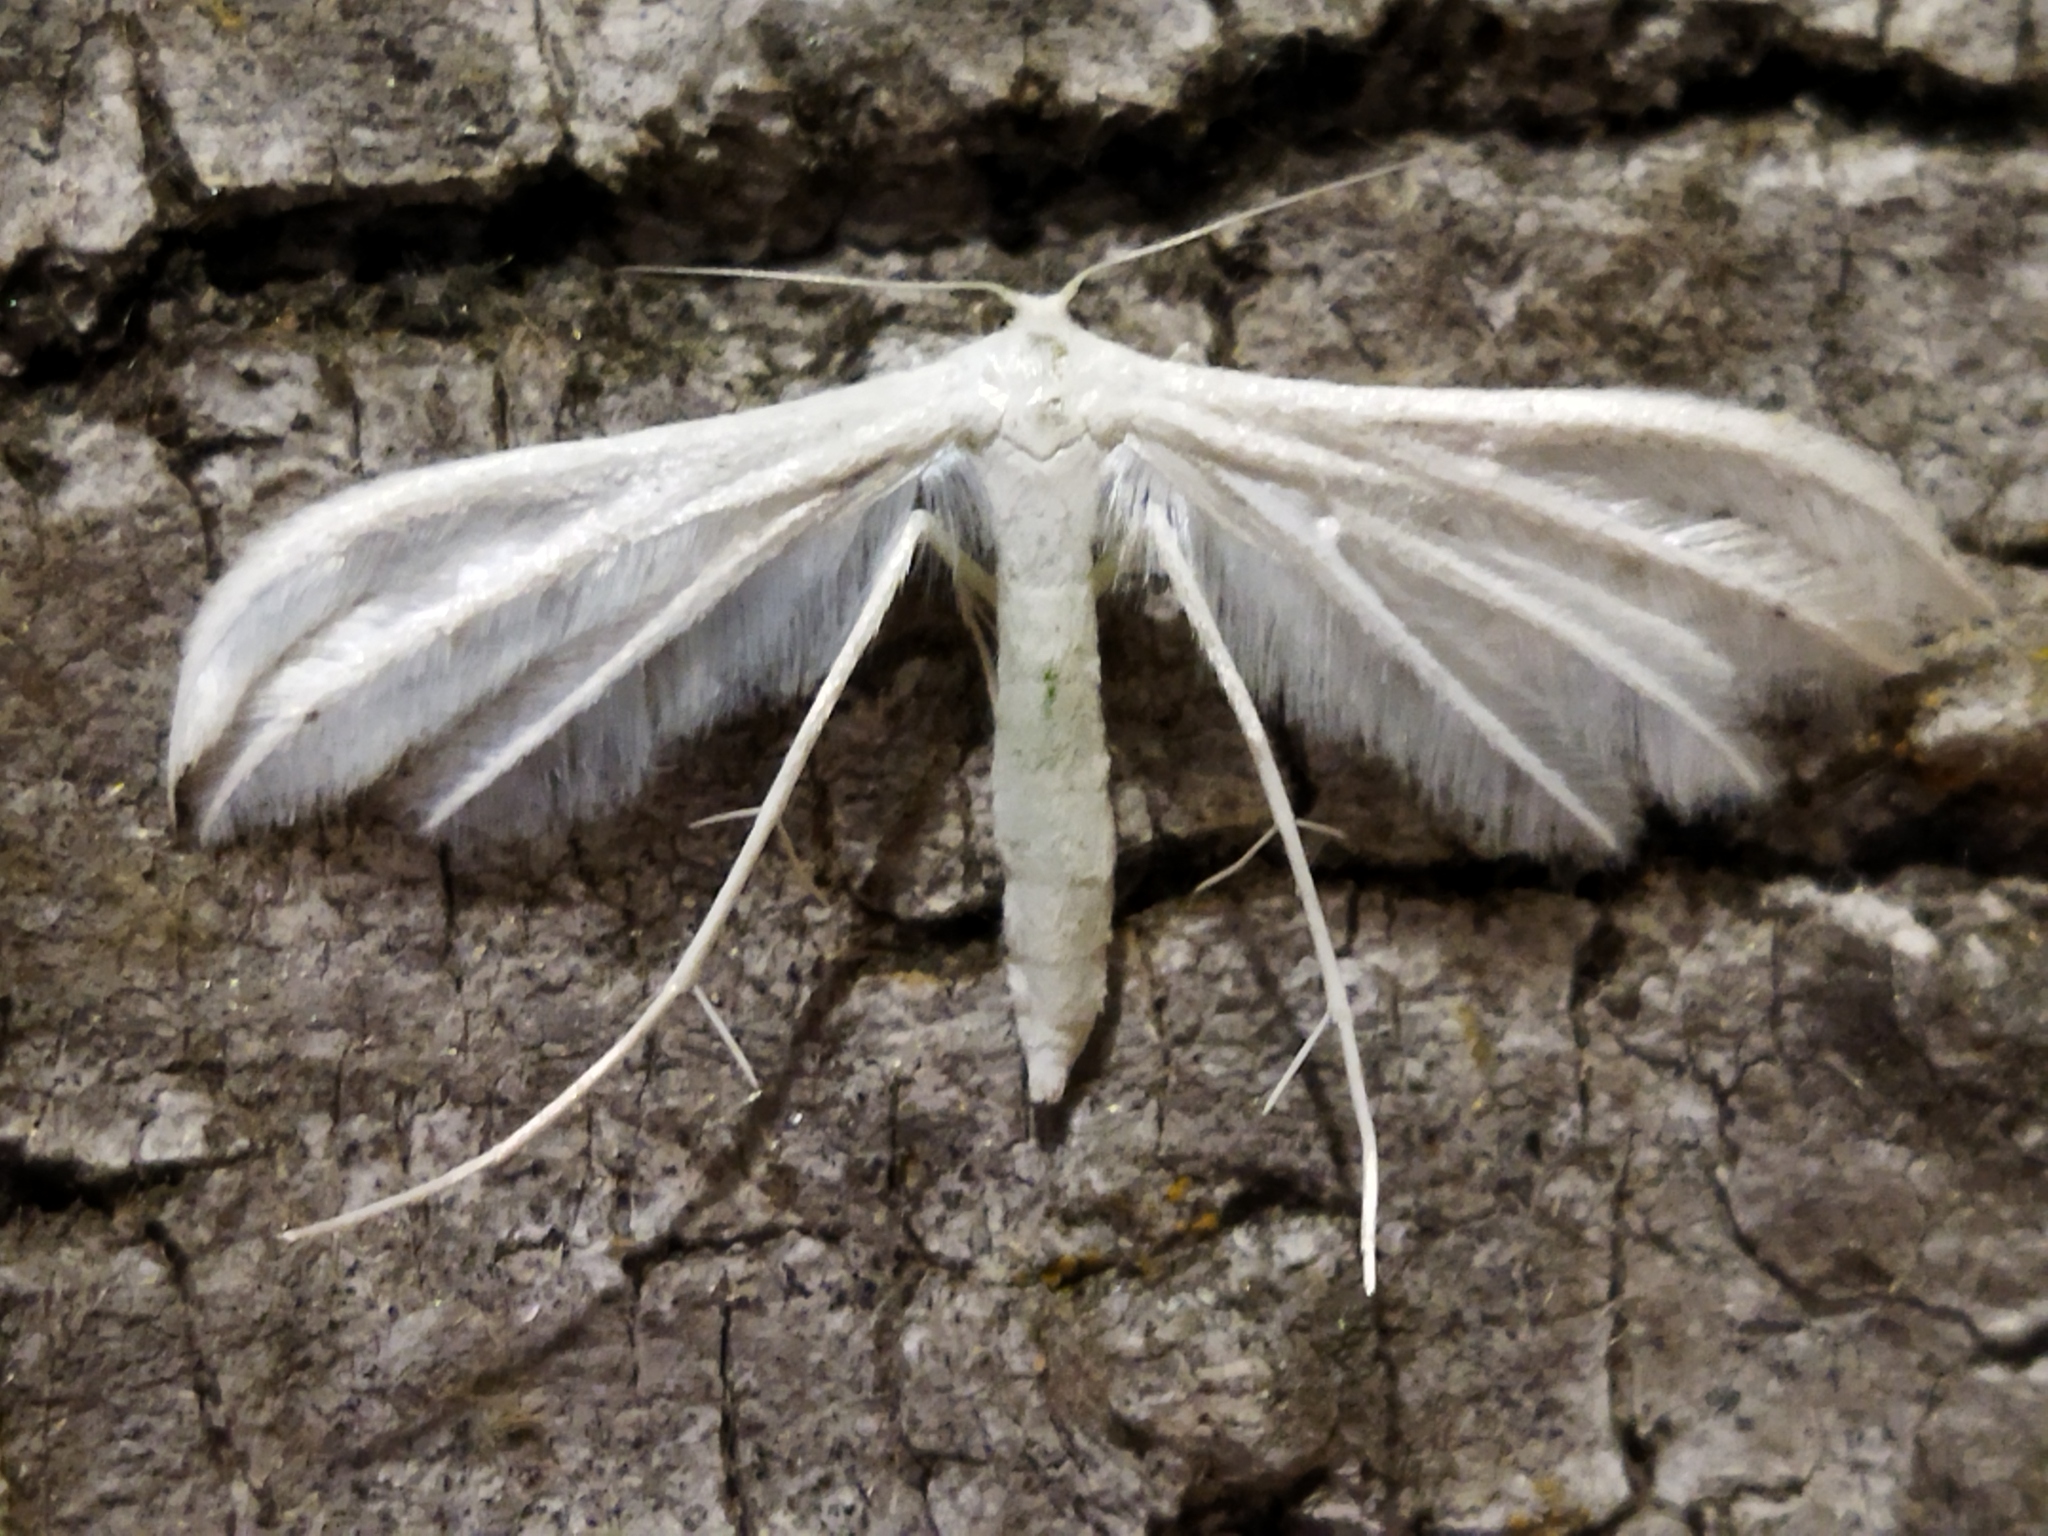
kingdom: Animalia
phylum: Arthropoda
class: Insecta
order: Lepidoptera
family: Pterophoridae
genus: Pterophorus
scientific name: Pterophorus pentadactyla
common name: White plume moth
